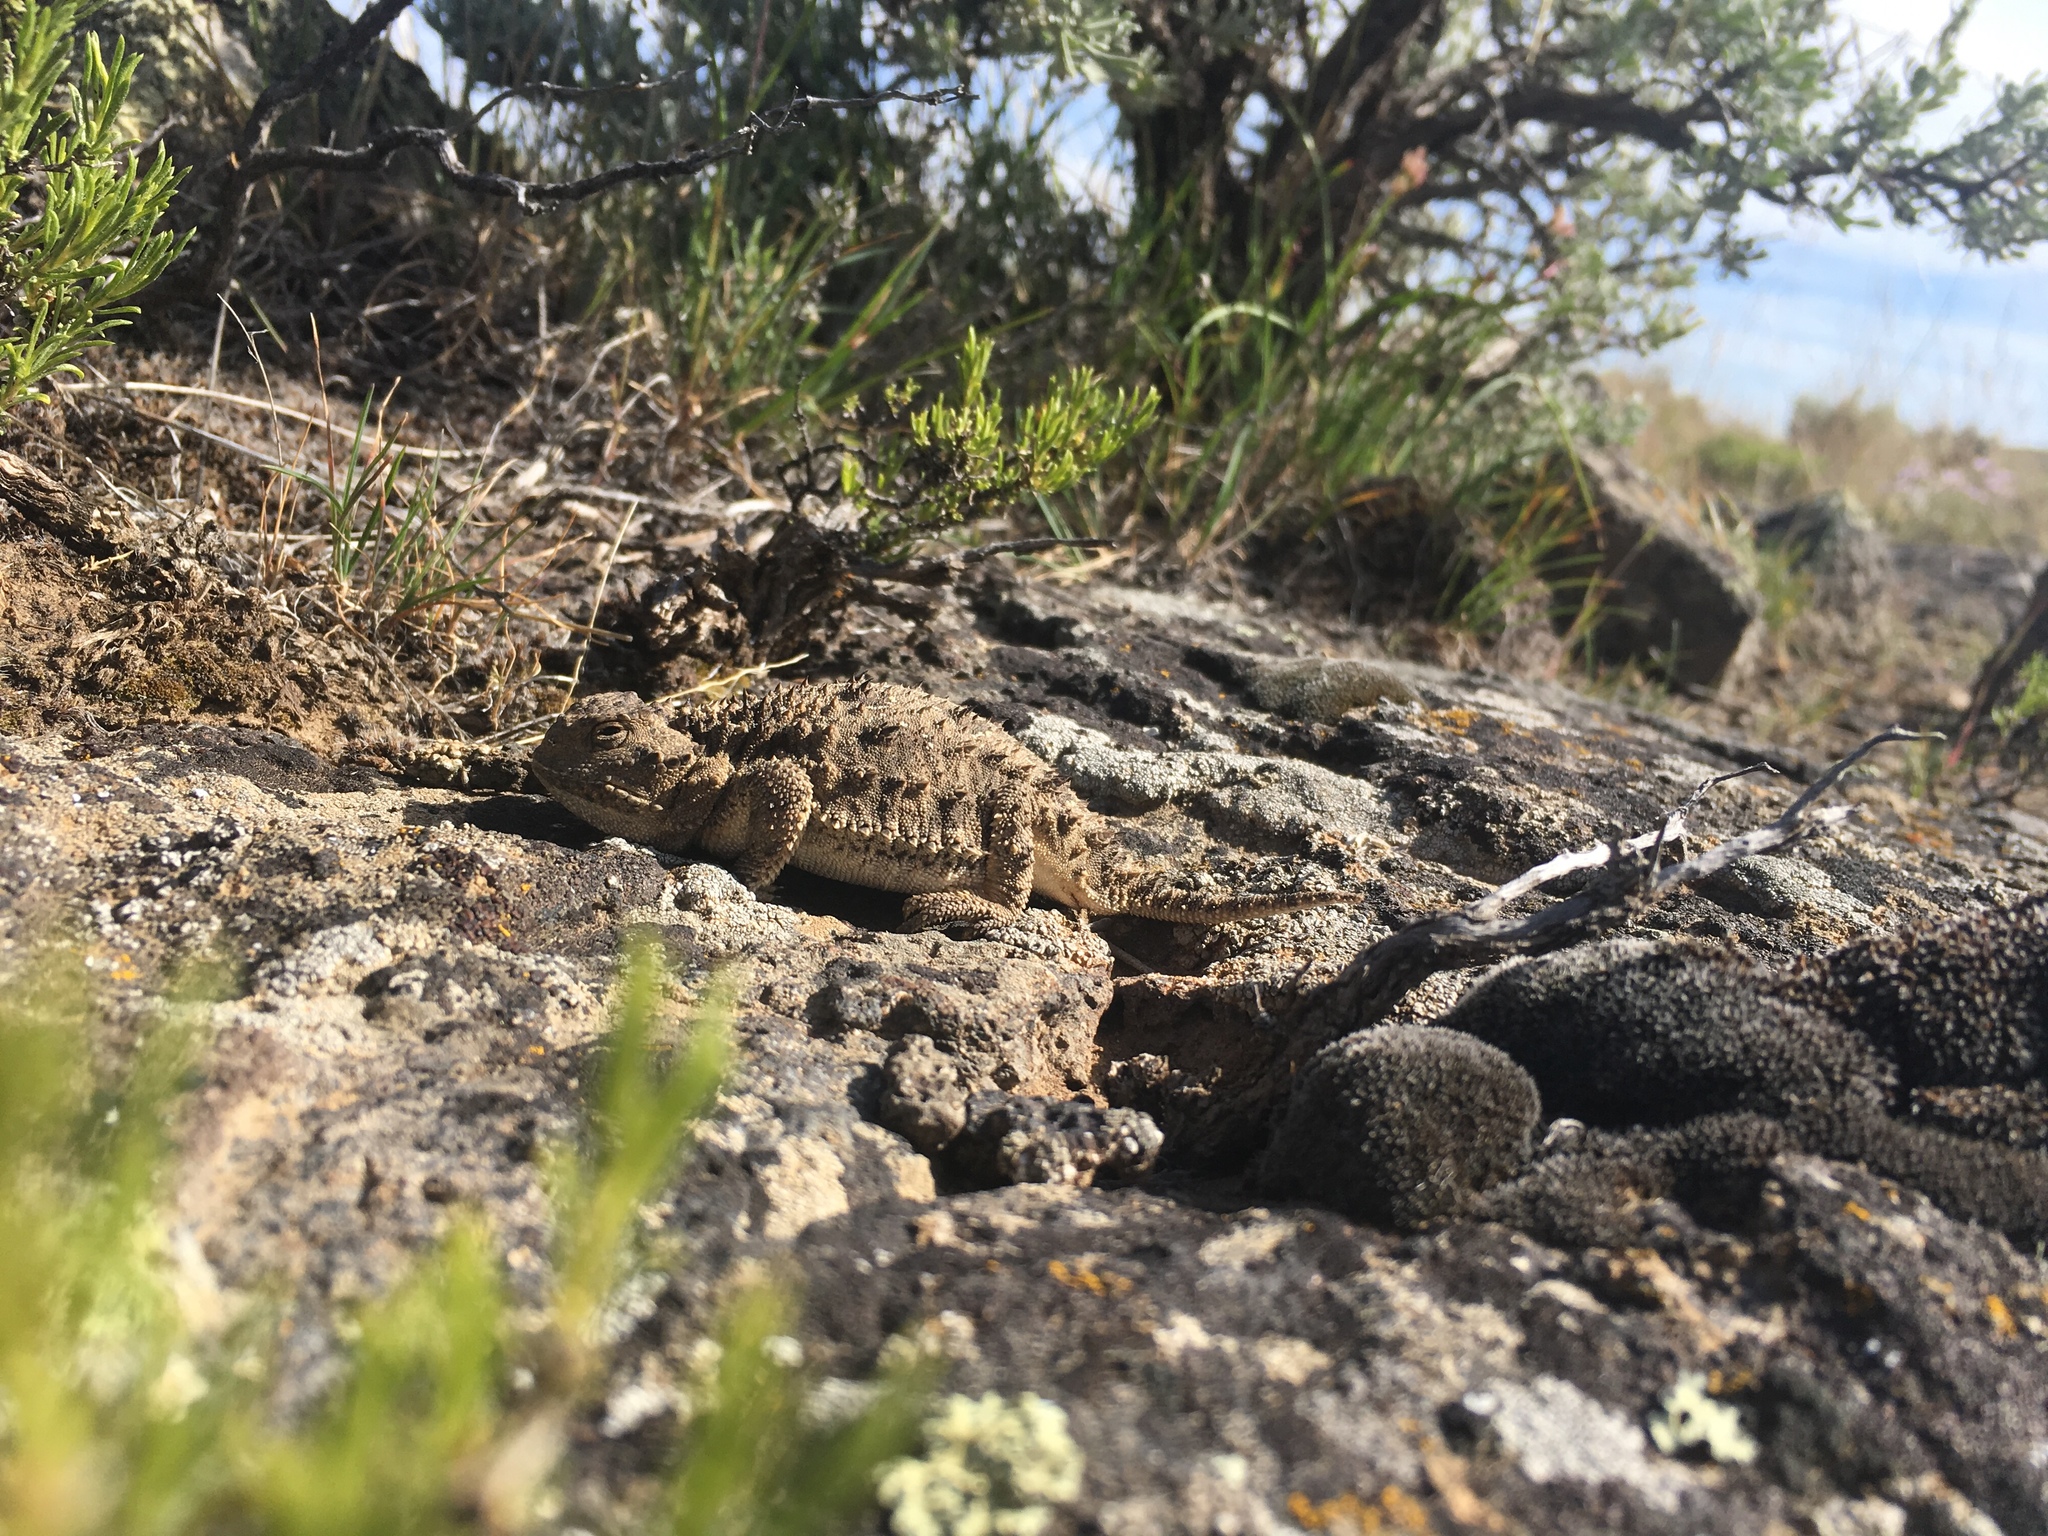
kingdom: Animalia
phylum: Chordata
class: Squamata
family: Phrynosomatidae
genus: Phrynosoma
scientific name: Phrynosoma douglasii
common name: Short-horned lizard
